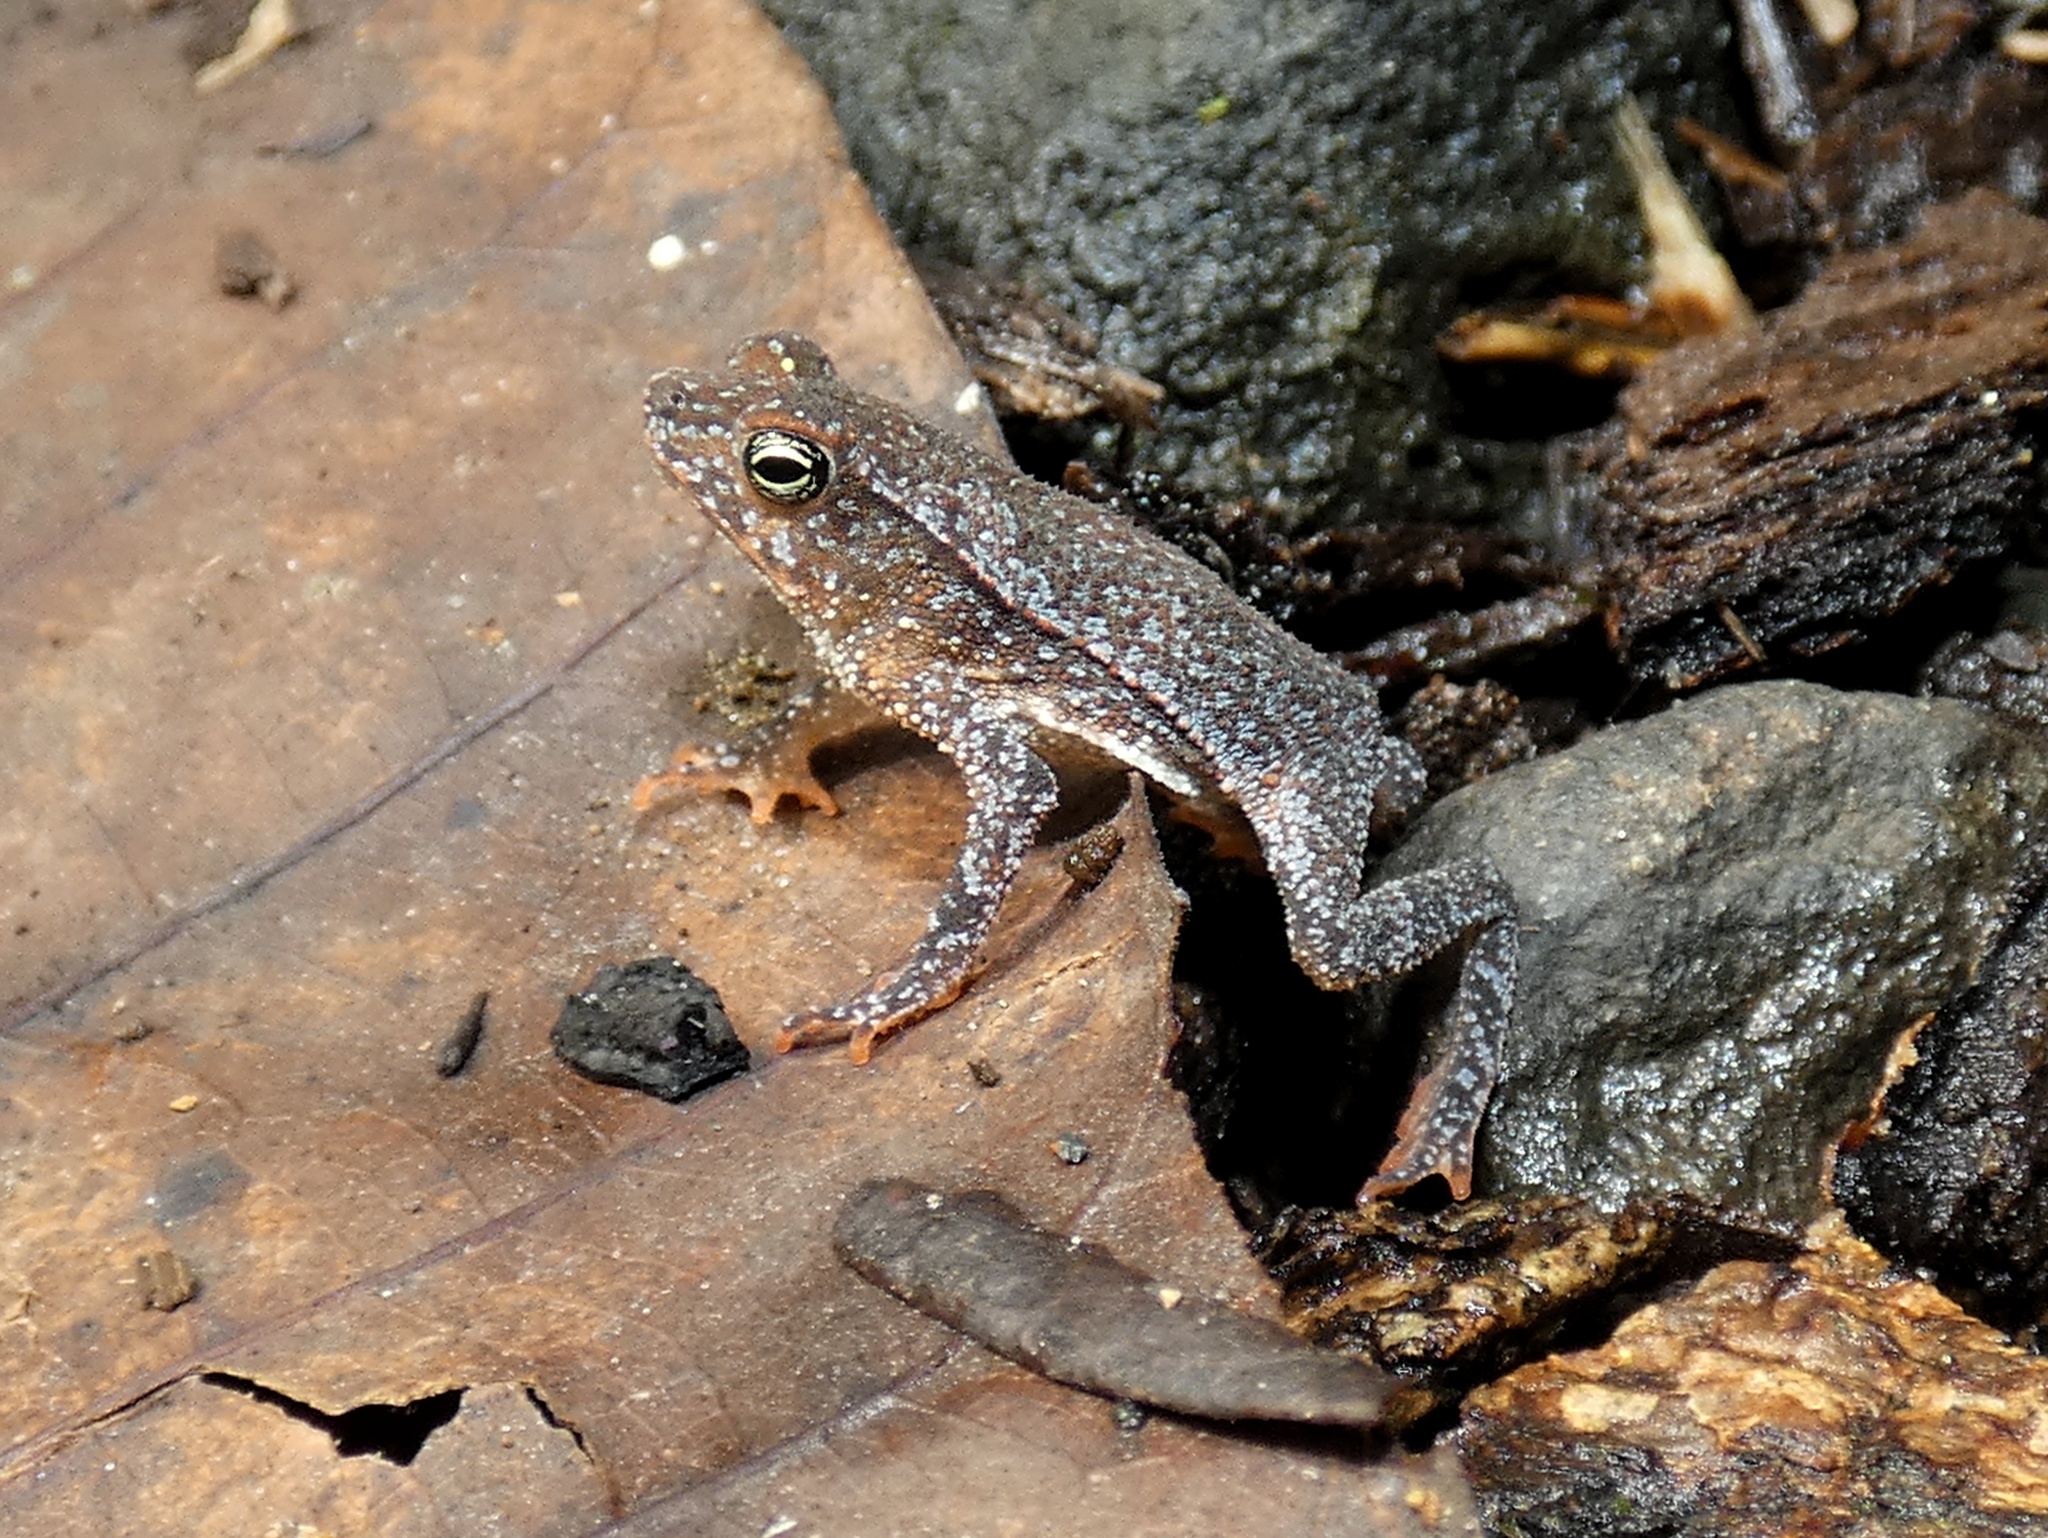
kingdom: Animalia
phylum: Chordata
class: Amphibia
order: Anura
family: Bufonidae
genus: Rhinella
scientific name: Rhinella alata
